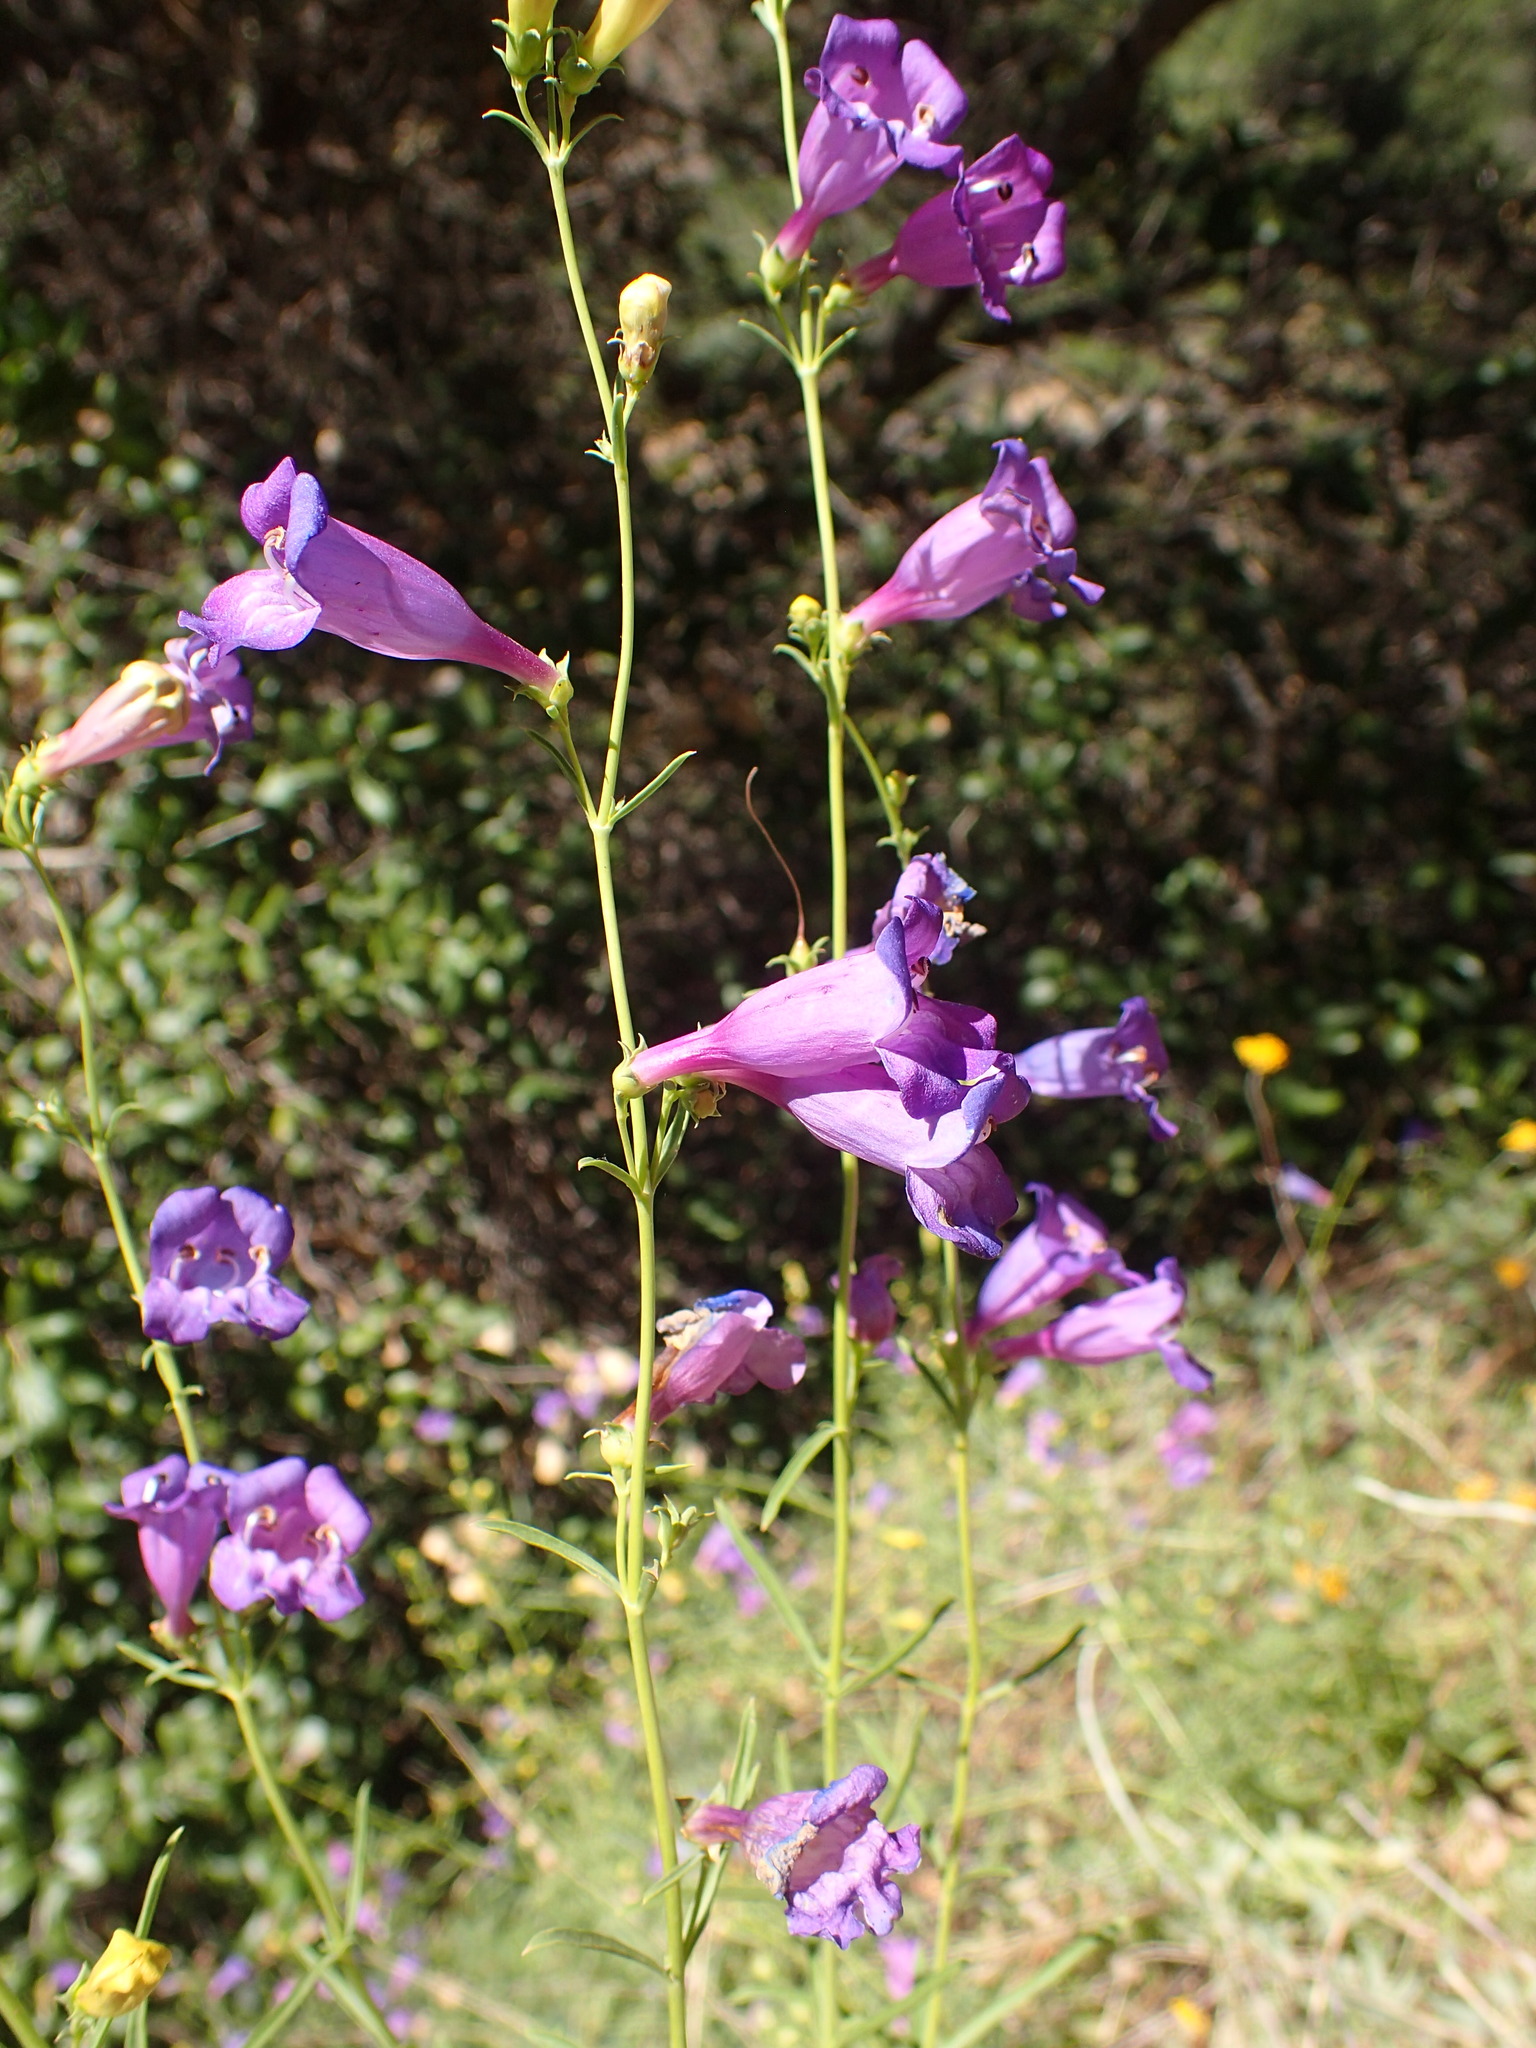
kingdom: Plantae
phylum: Tracheophyta
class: Magnoliopsida
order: Lamiales
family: Plantaginaceae
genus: Penstemon
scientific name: Penstemon heterophyllus
